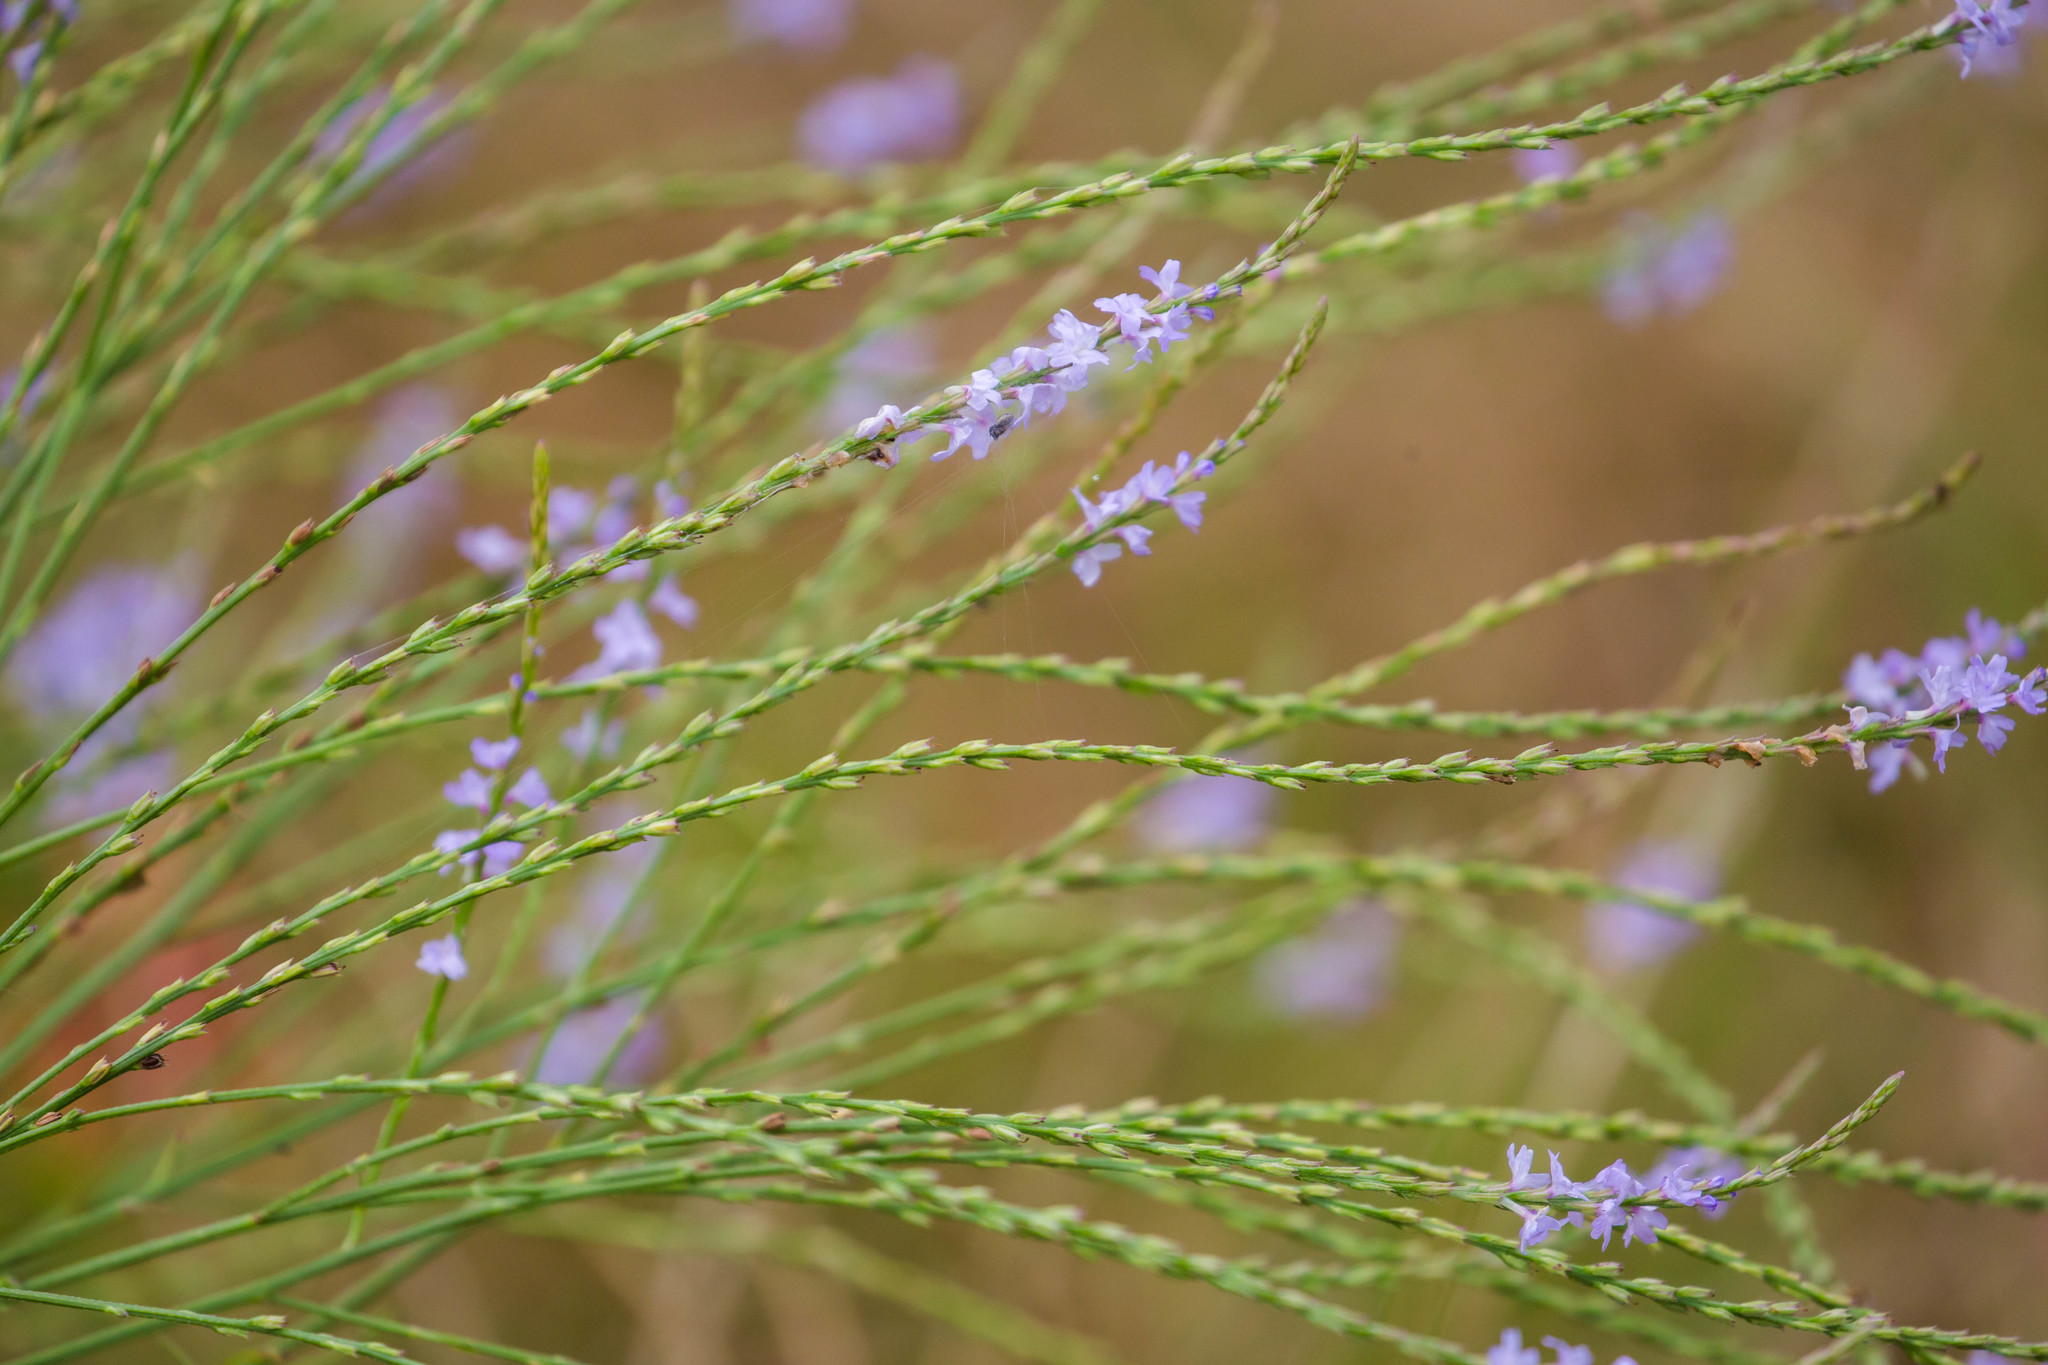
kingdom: Plantae
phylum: Tracheophyta
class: Magnoliopsida
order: Lamiales
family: Verbenaceae
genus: Verbena
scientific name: Verbena halei
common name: Texas vervain
